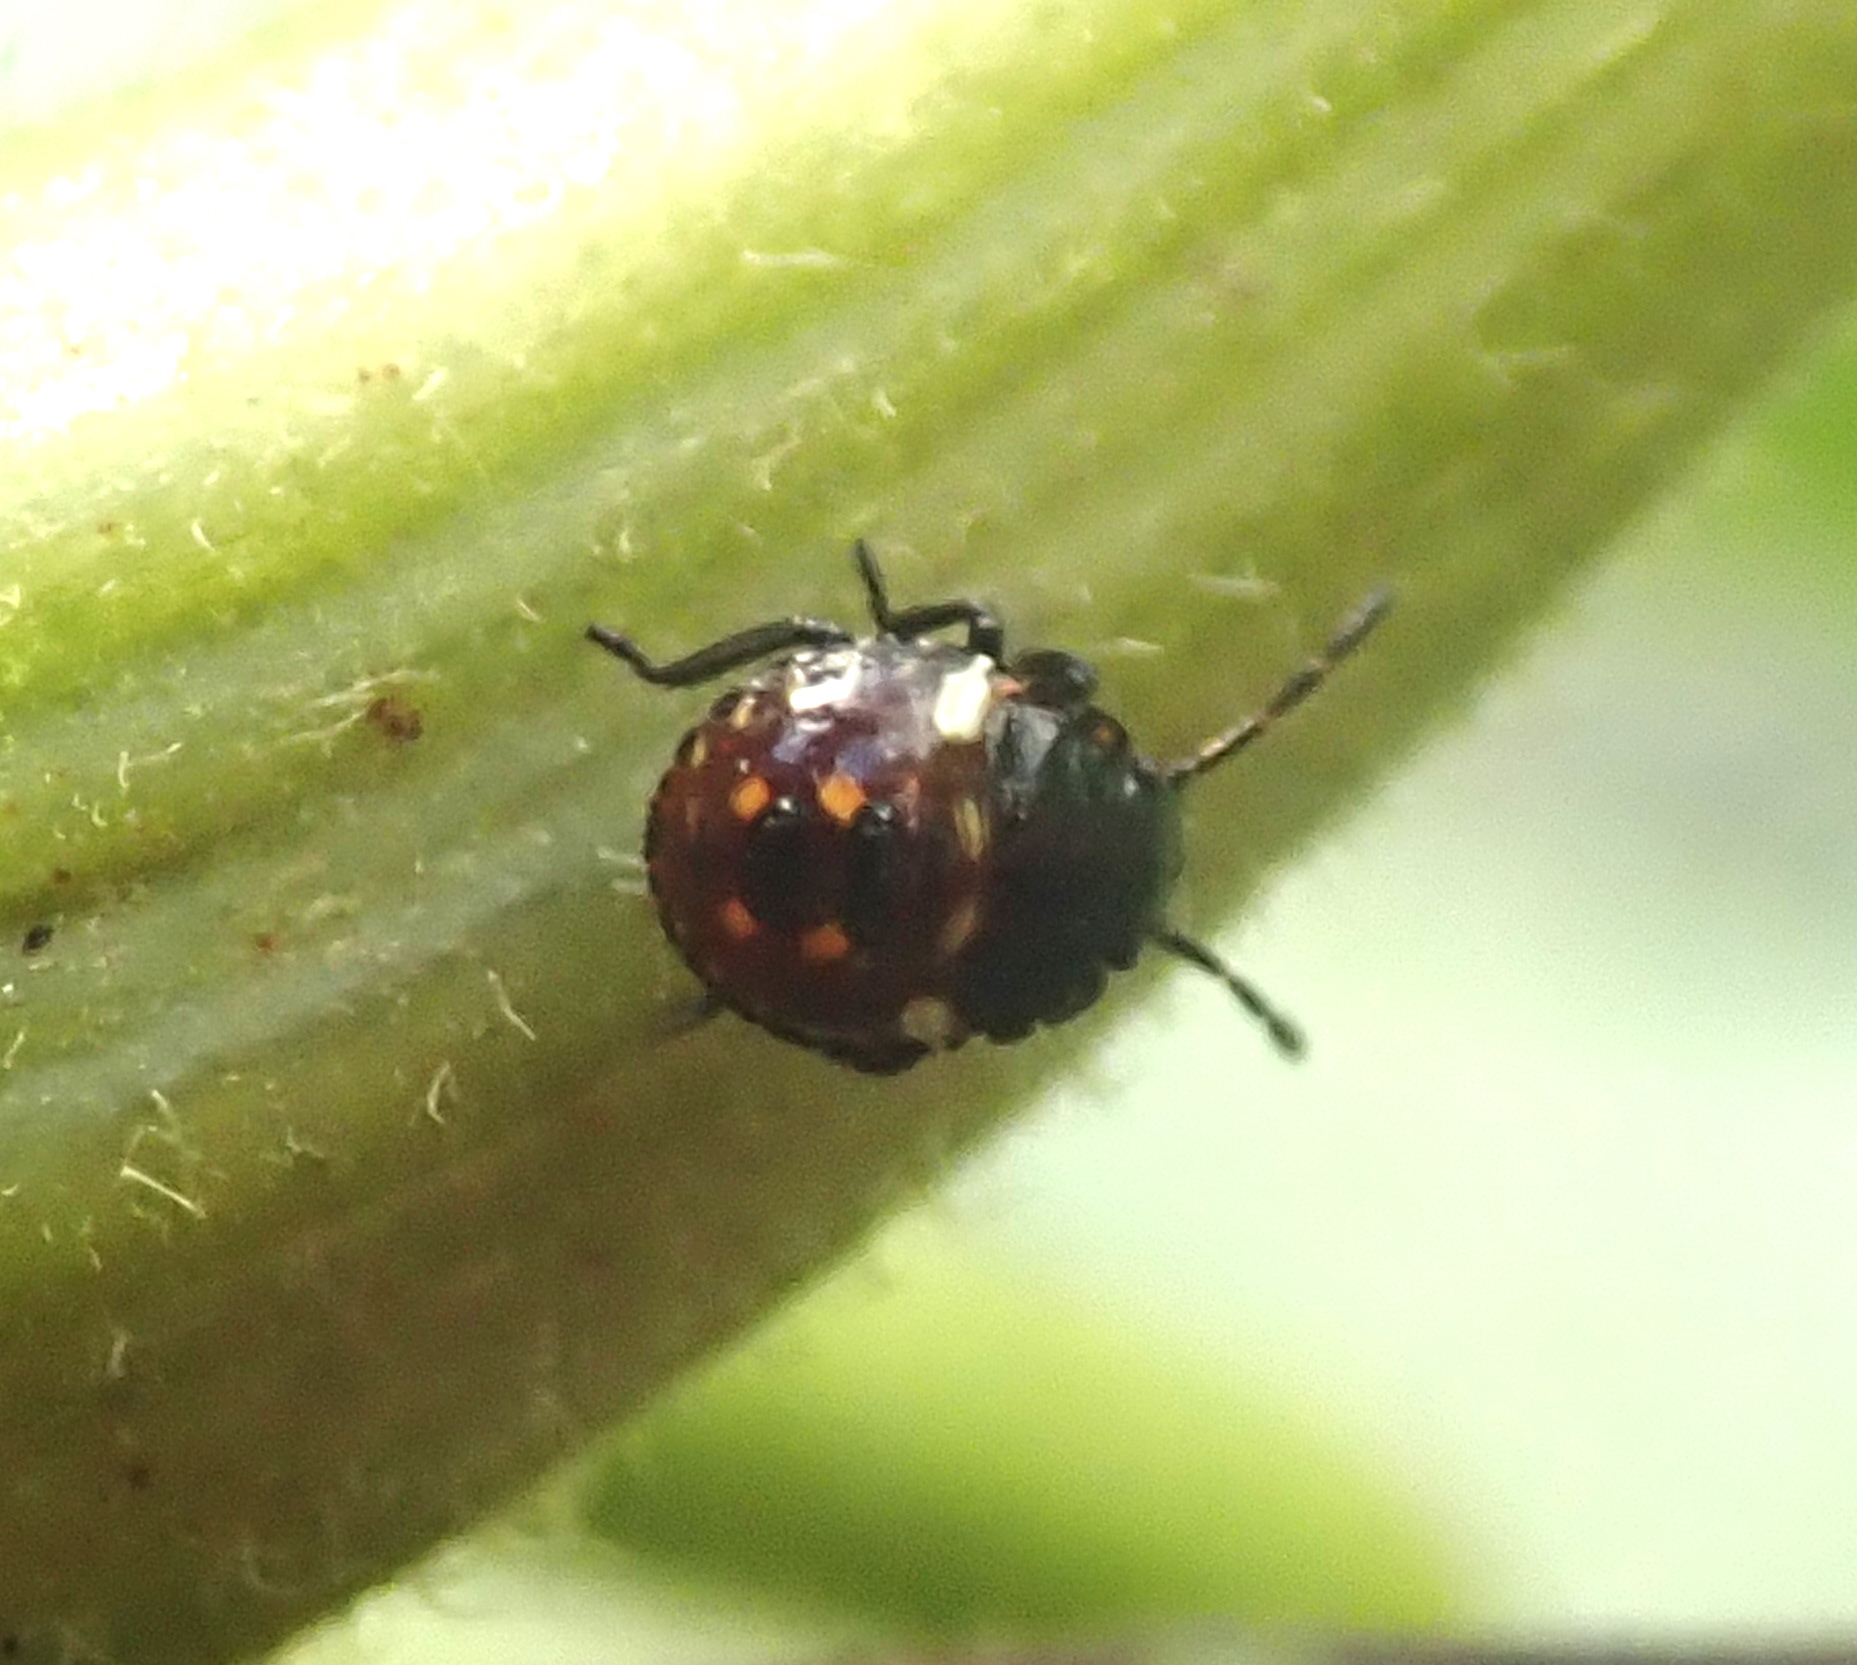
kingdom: Animalia
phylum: Arthropoda
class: Insecta
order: Hemiptera
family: Pentatomidae
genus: Nezara
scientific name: Nezara viridula
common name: Southern green stink bug
